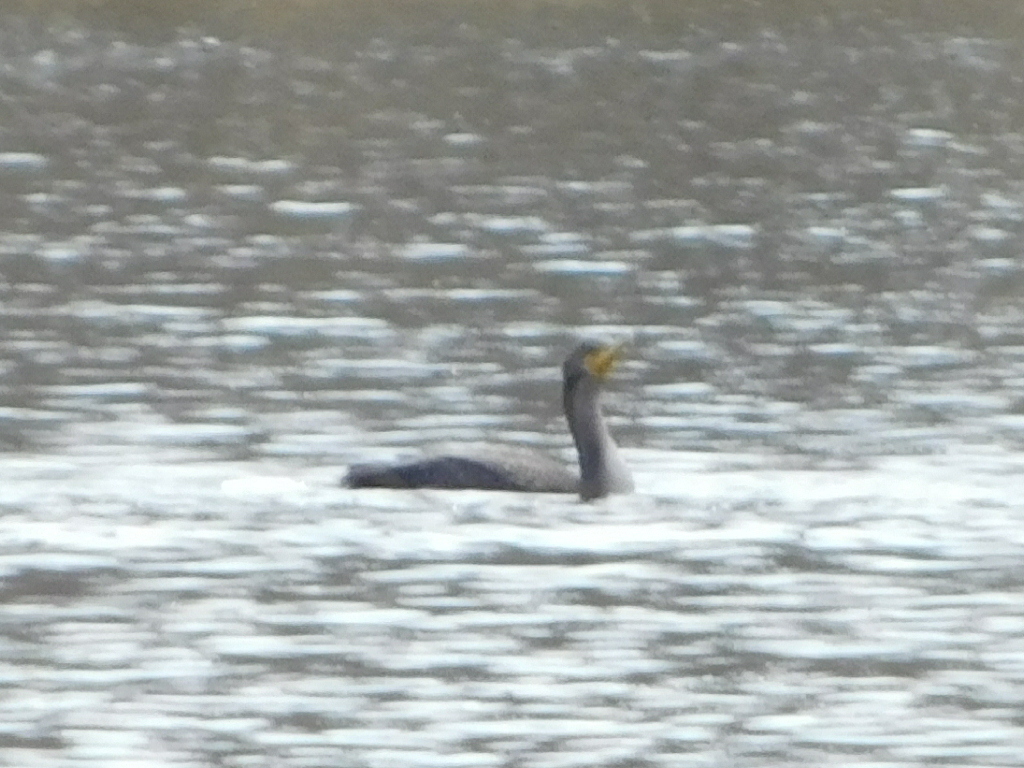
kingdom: Animalia
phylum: Chordata
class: Aves
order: Suliformes
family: Phalacrocoracidae
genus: Phalacrocorax
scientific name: Phalacrocorax auritus
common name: Double-crested cormorant
